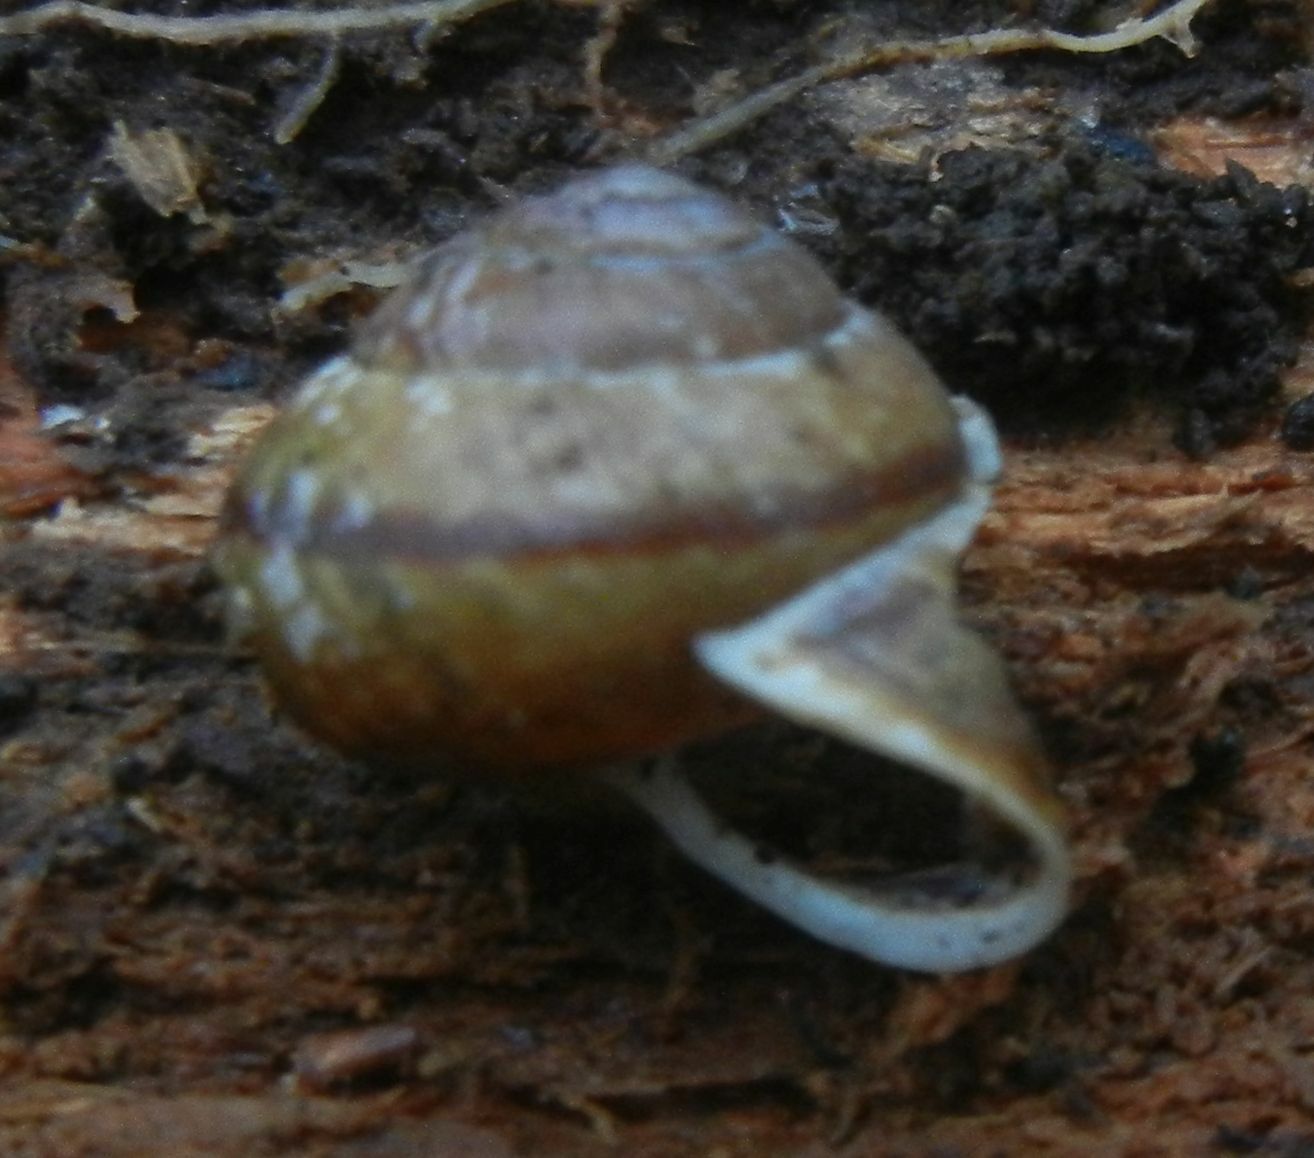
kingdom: Animalia
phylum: Mollusca
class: Gastropoda
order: Stylommatophora
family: Helicidae
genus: Arianta
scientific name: Arianta arbustorum
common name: Copse snail
